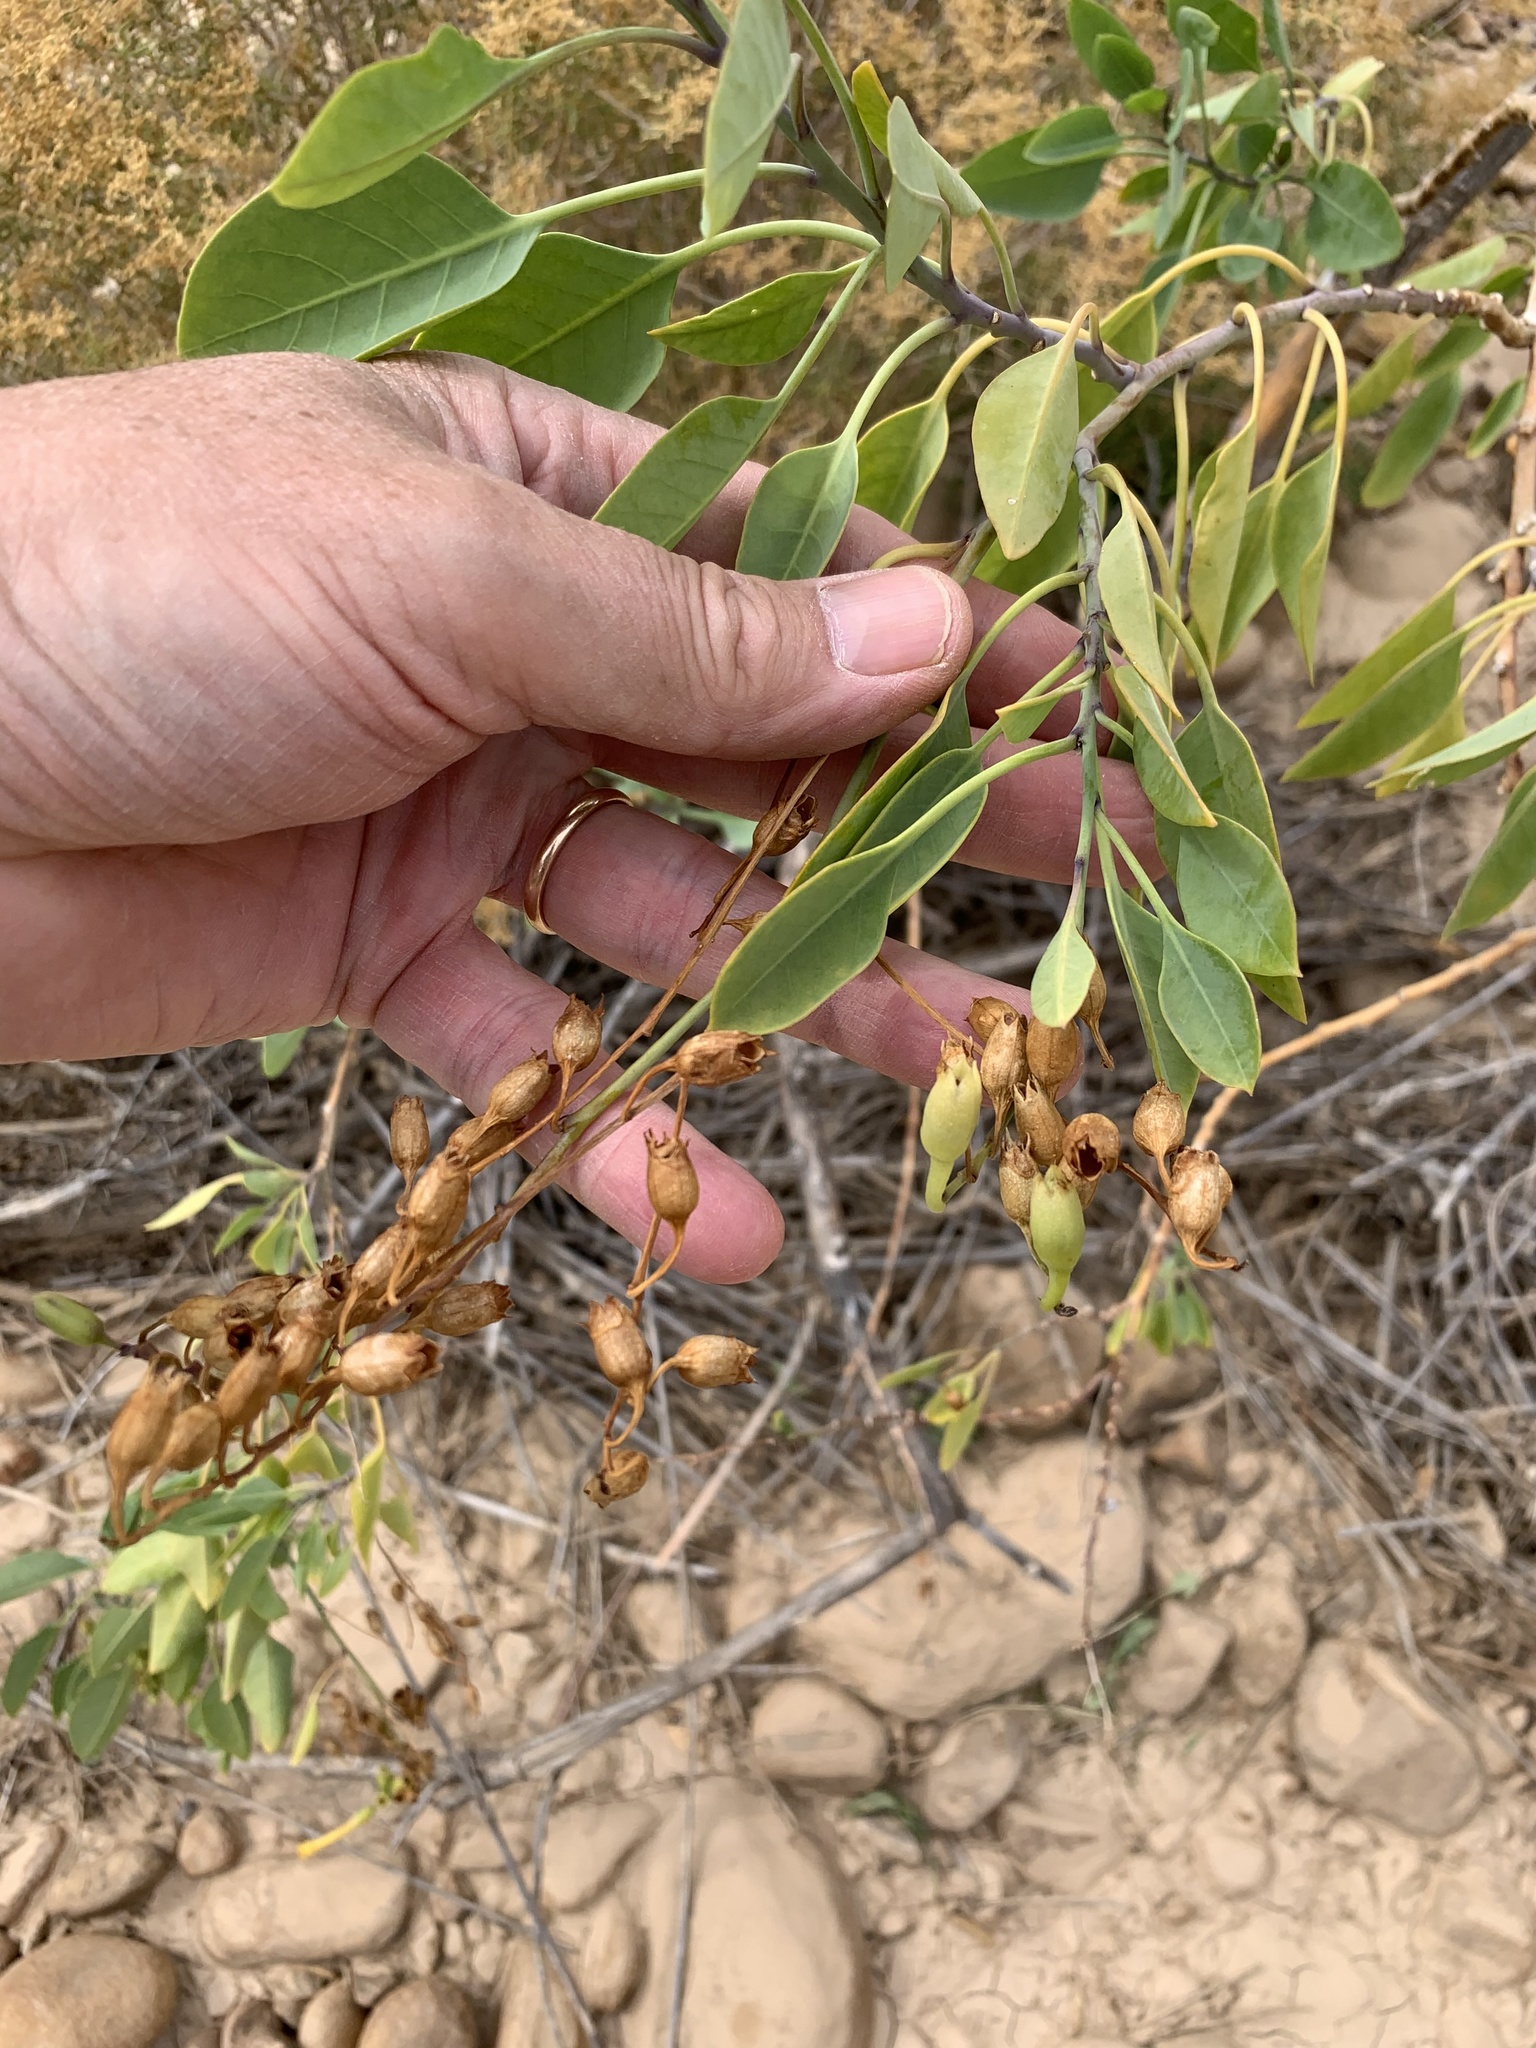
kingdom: Plantae
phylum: Tracheophyta
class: Magnoliopsida
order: Solanales
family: Solanaceae
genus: Nicotiana
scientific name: Nicotiana glauca
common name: Tree tobacco
